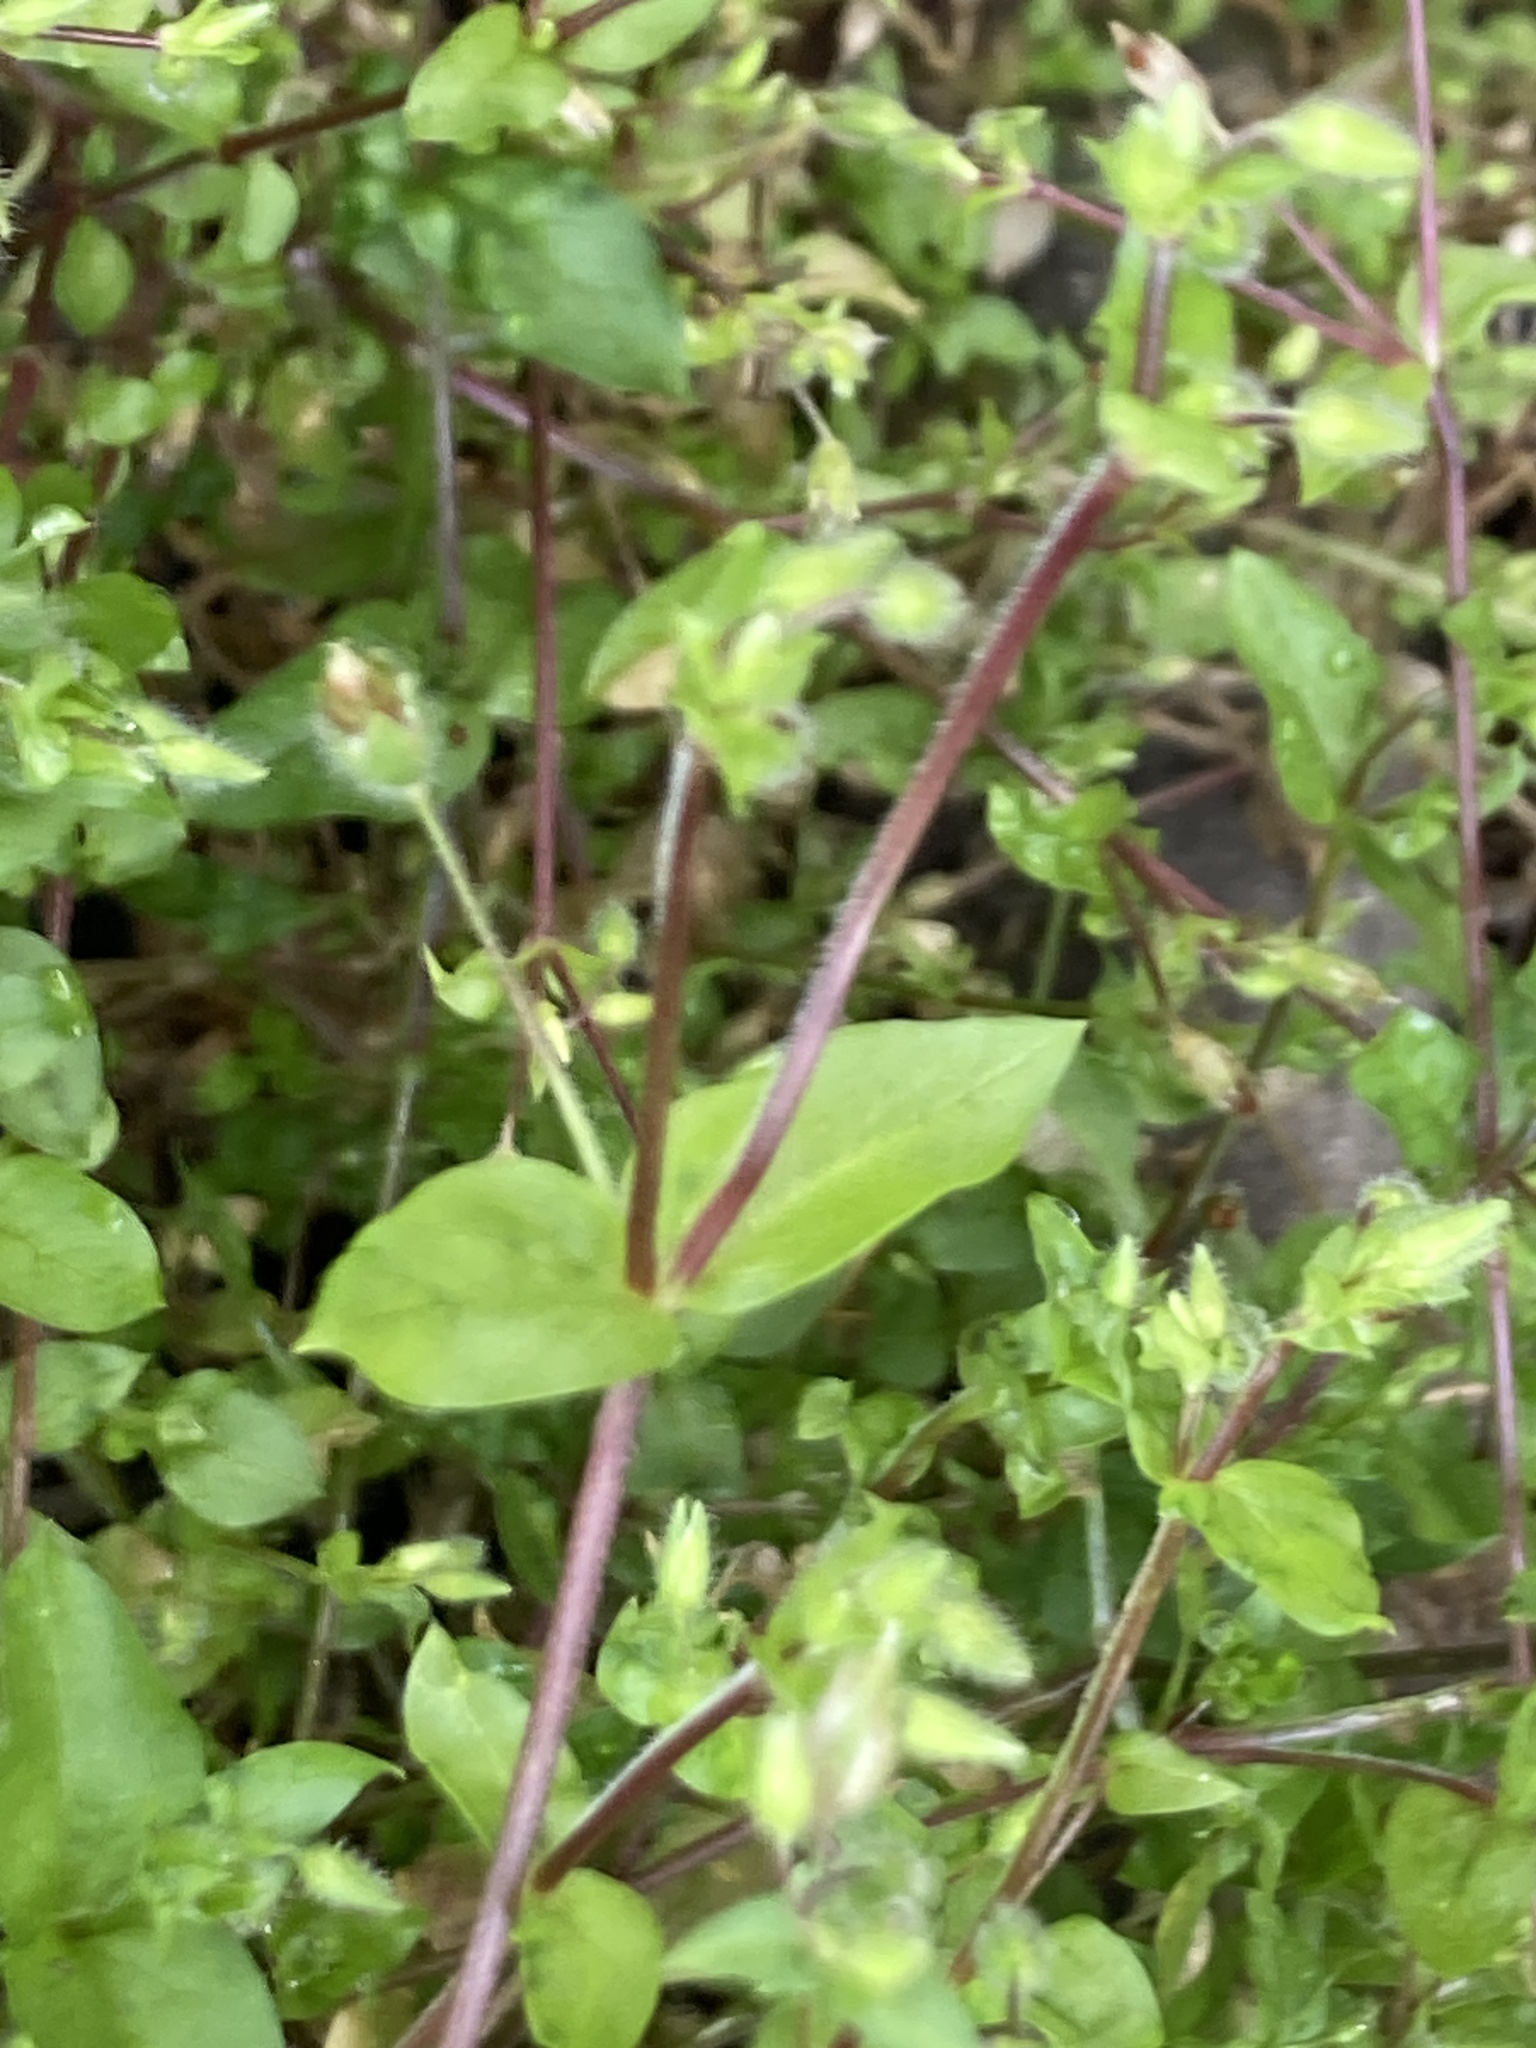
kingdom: Plantae
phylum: Tracheophyta
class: Magnoliopsida
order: Caryophyllales
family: Caryophyllaceae
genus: Stellaria
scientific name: Stellaria media
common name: Common chickweed
